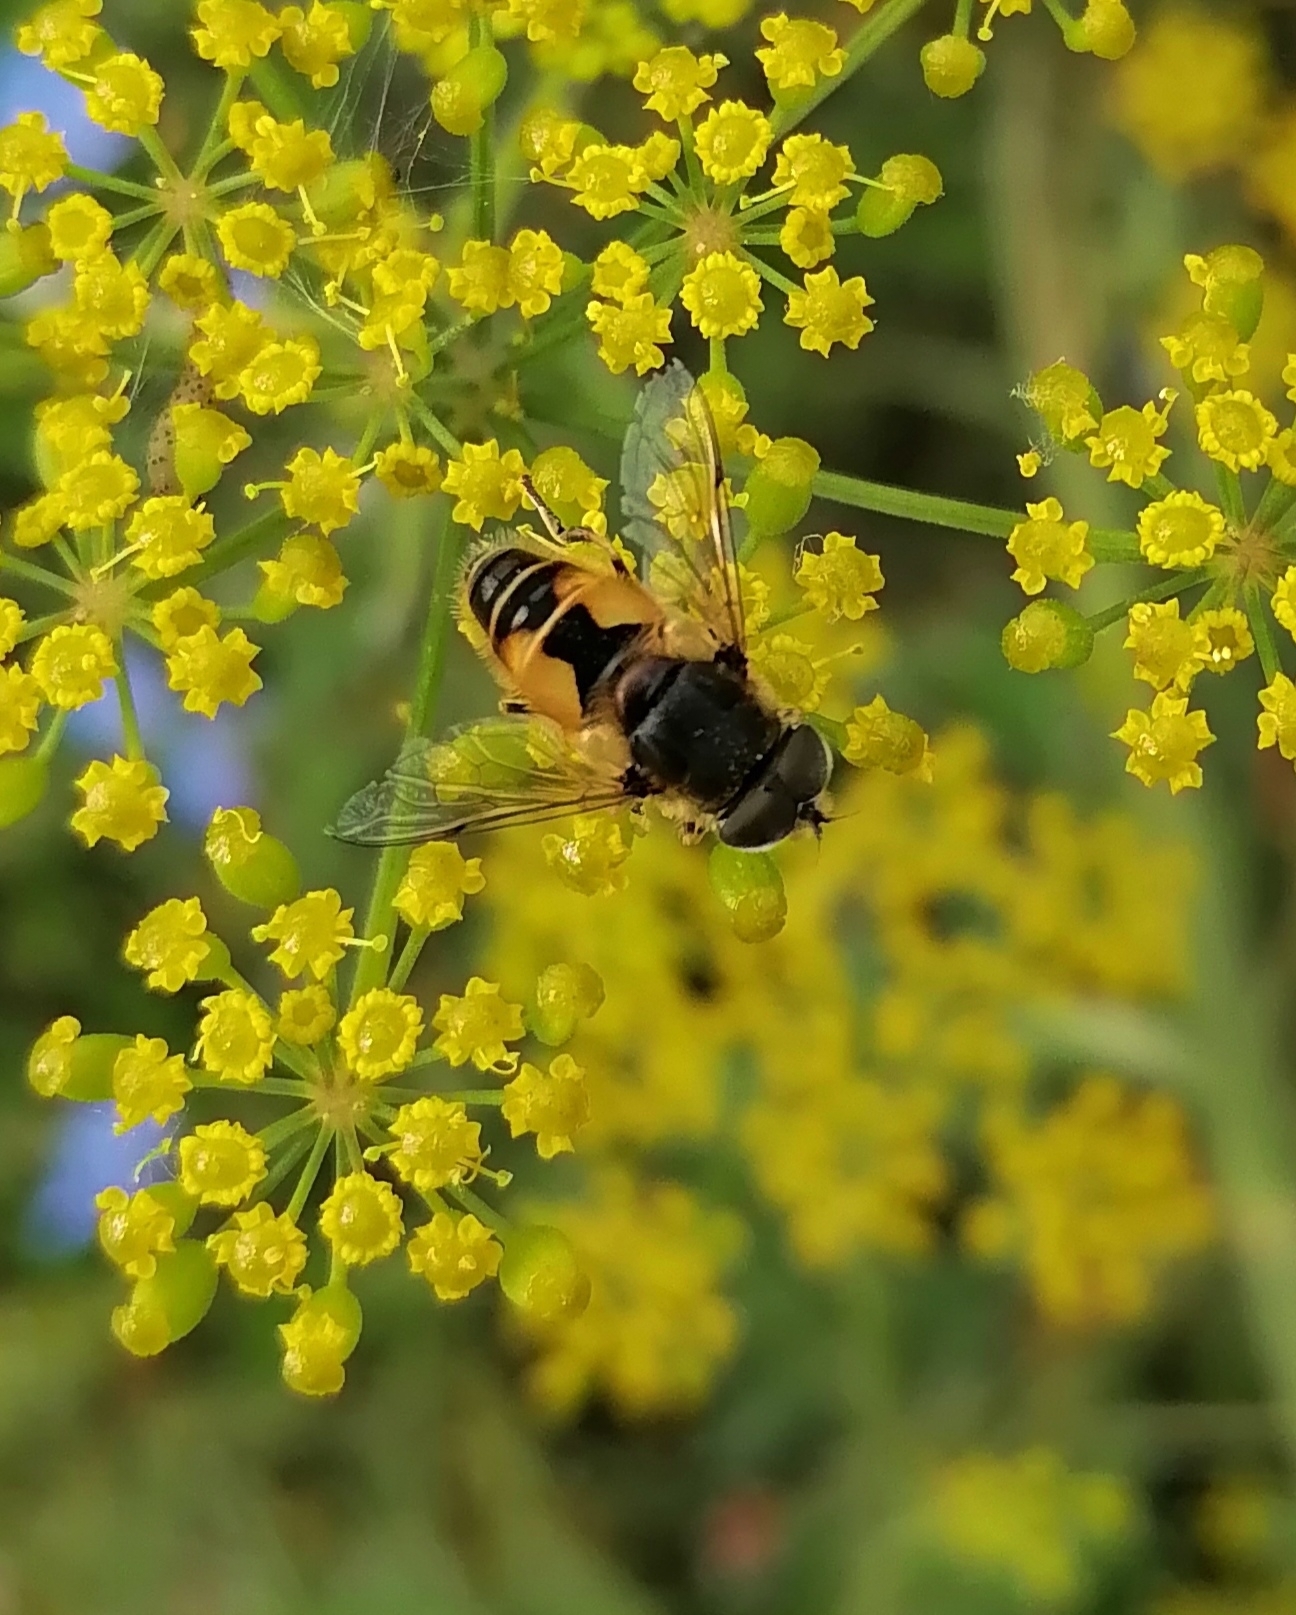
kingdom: Animalia
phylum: Arthropoda
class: Insecta
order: Diptera
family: Syrphidae
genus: Eristalis
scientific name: Eristalis arbustorum
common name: Hover fly
